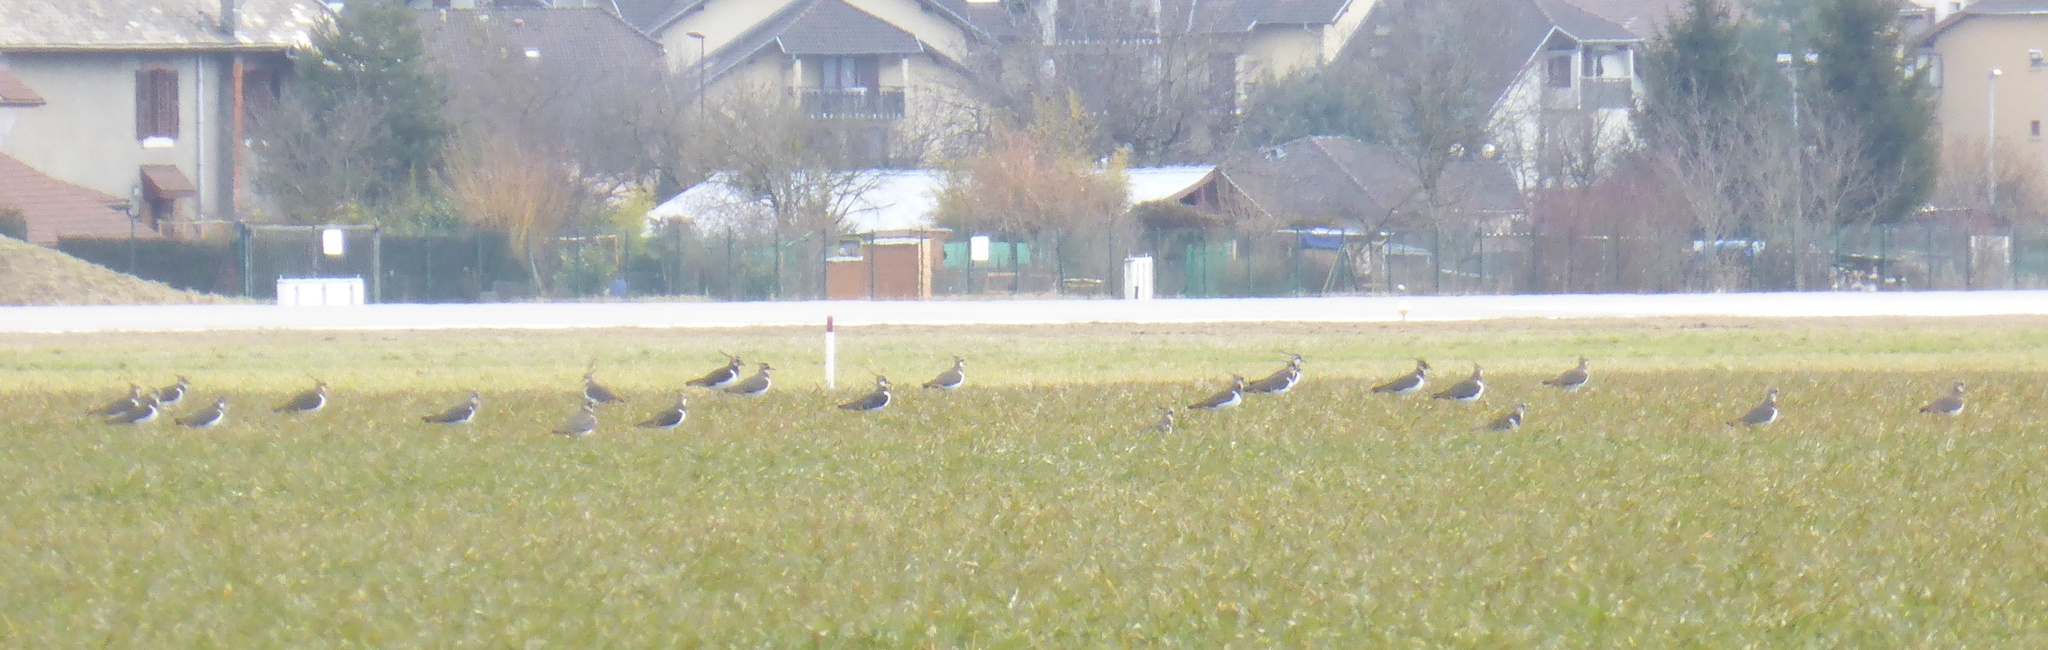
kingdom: Animalia
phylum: Chordata
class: Aves
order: Charadriiformes
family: Charadriidae
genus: Vanellus
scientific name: Vanellus vanellus
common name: Northern lapwing
